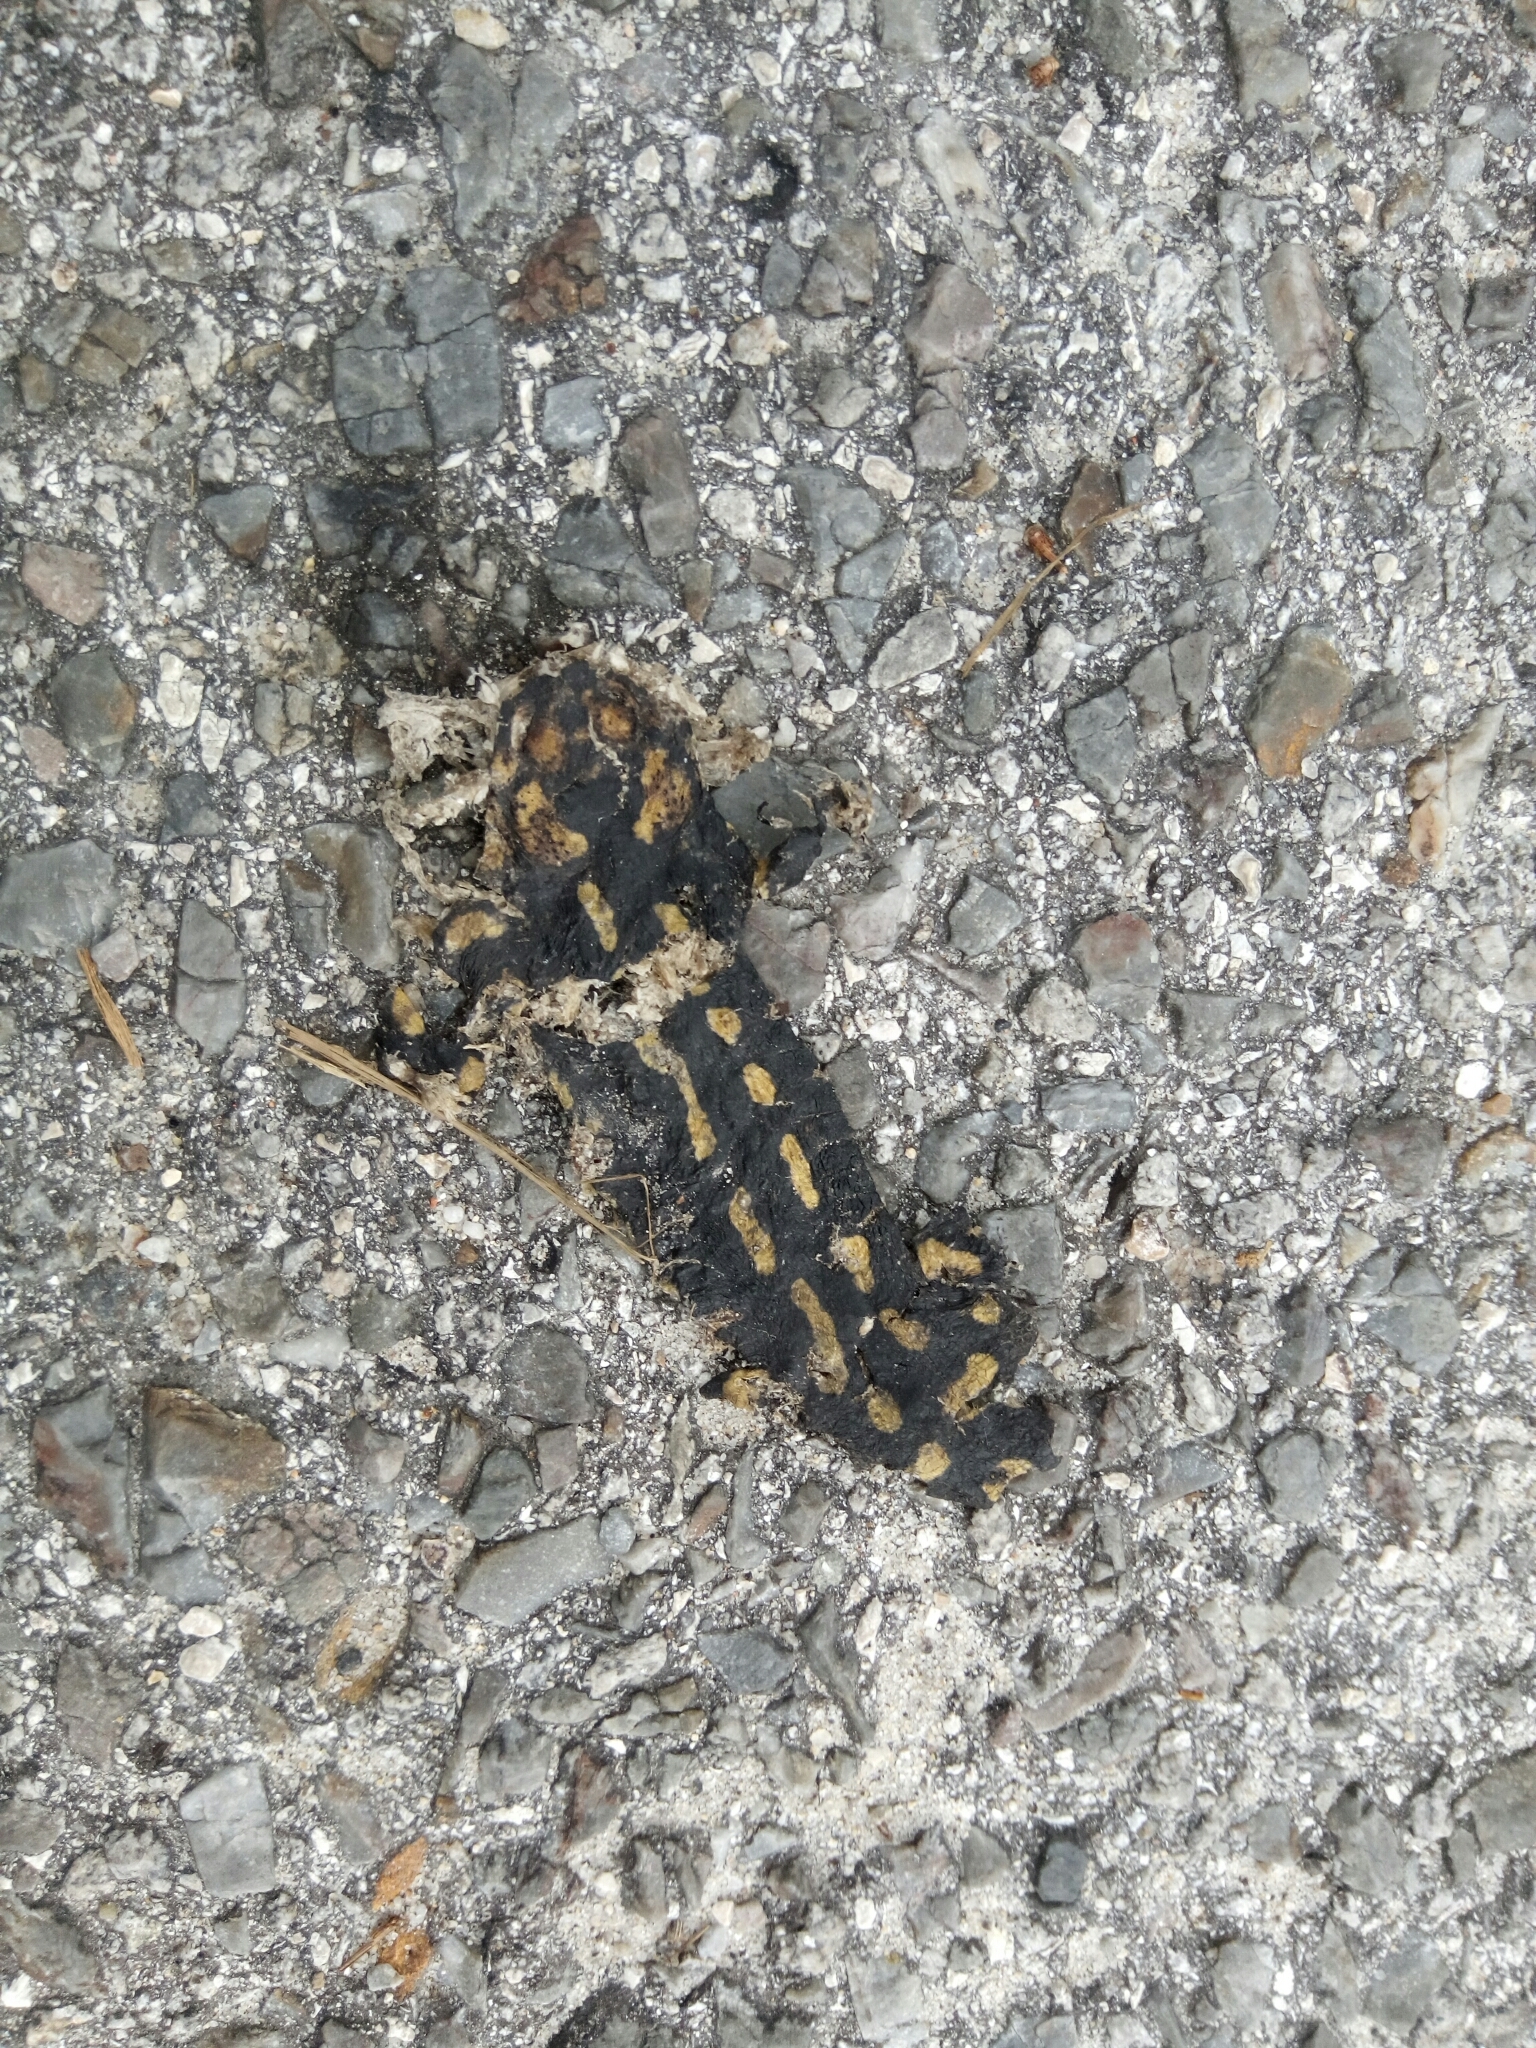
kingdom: Animalia
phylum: Chordata
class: Amphibia
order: Caudata
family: Salamandridae
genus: Salamandra
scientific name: Salamandra salamandra
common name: Fire salamander
